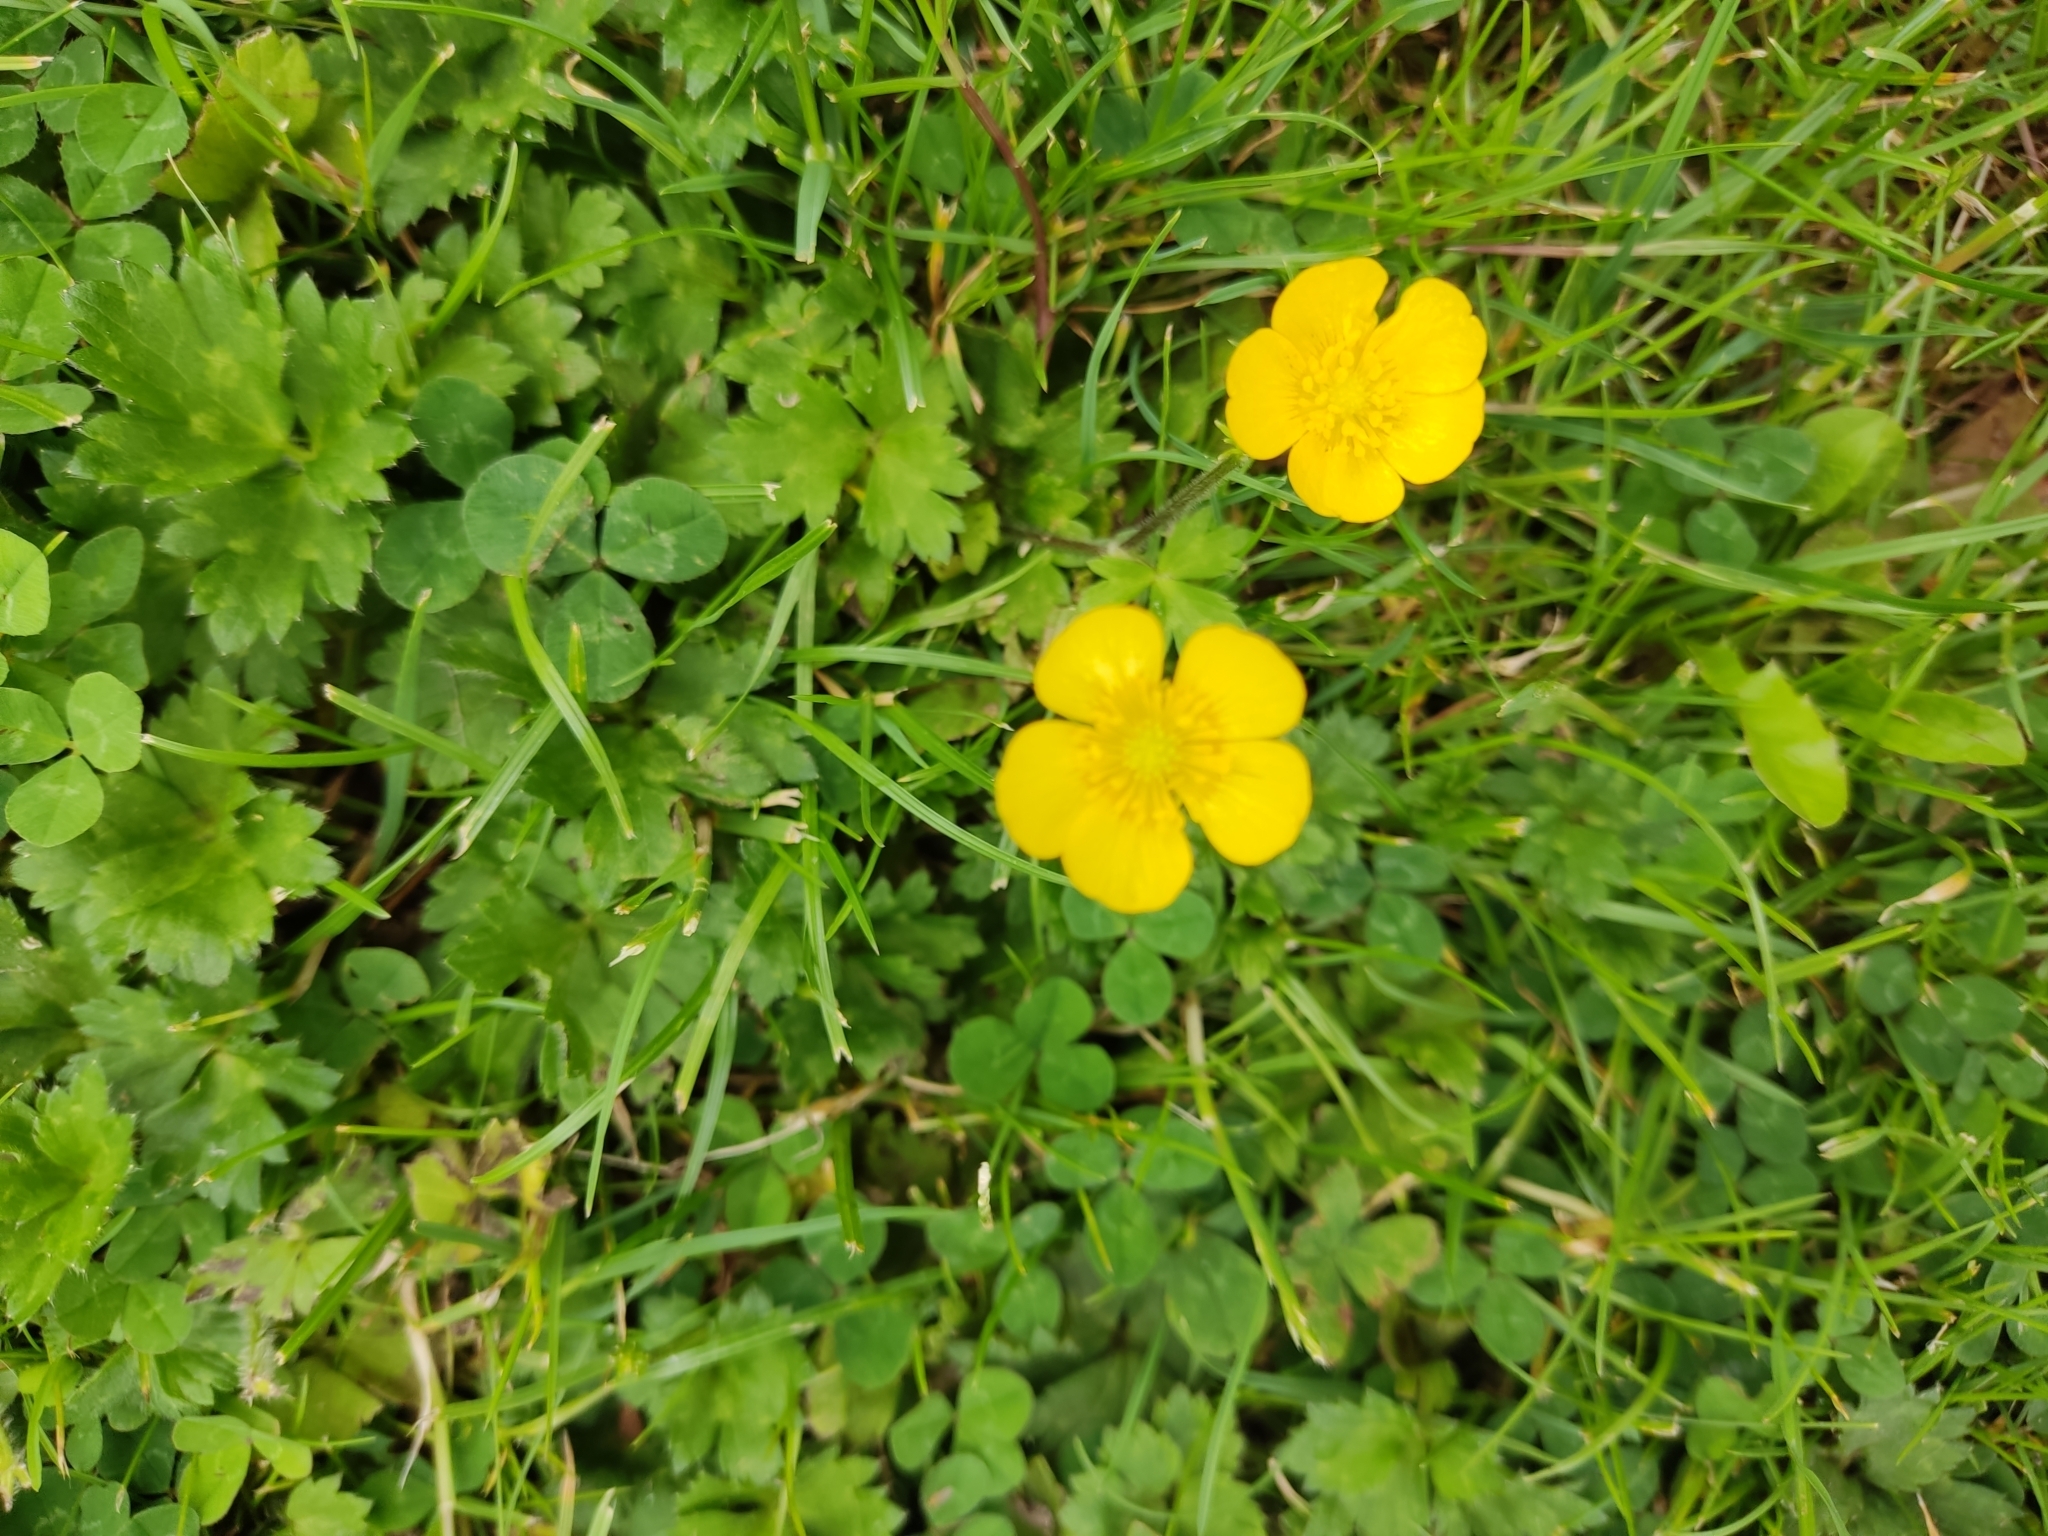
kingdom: Plantae
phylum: Tracheophyta
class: Magnoliopsida
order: Ranunculales
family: Ranunculaceae
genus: Ranunculus
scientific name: Ranunculus repens
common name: Creeping buttercup
